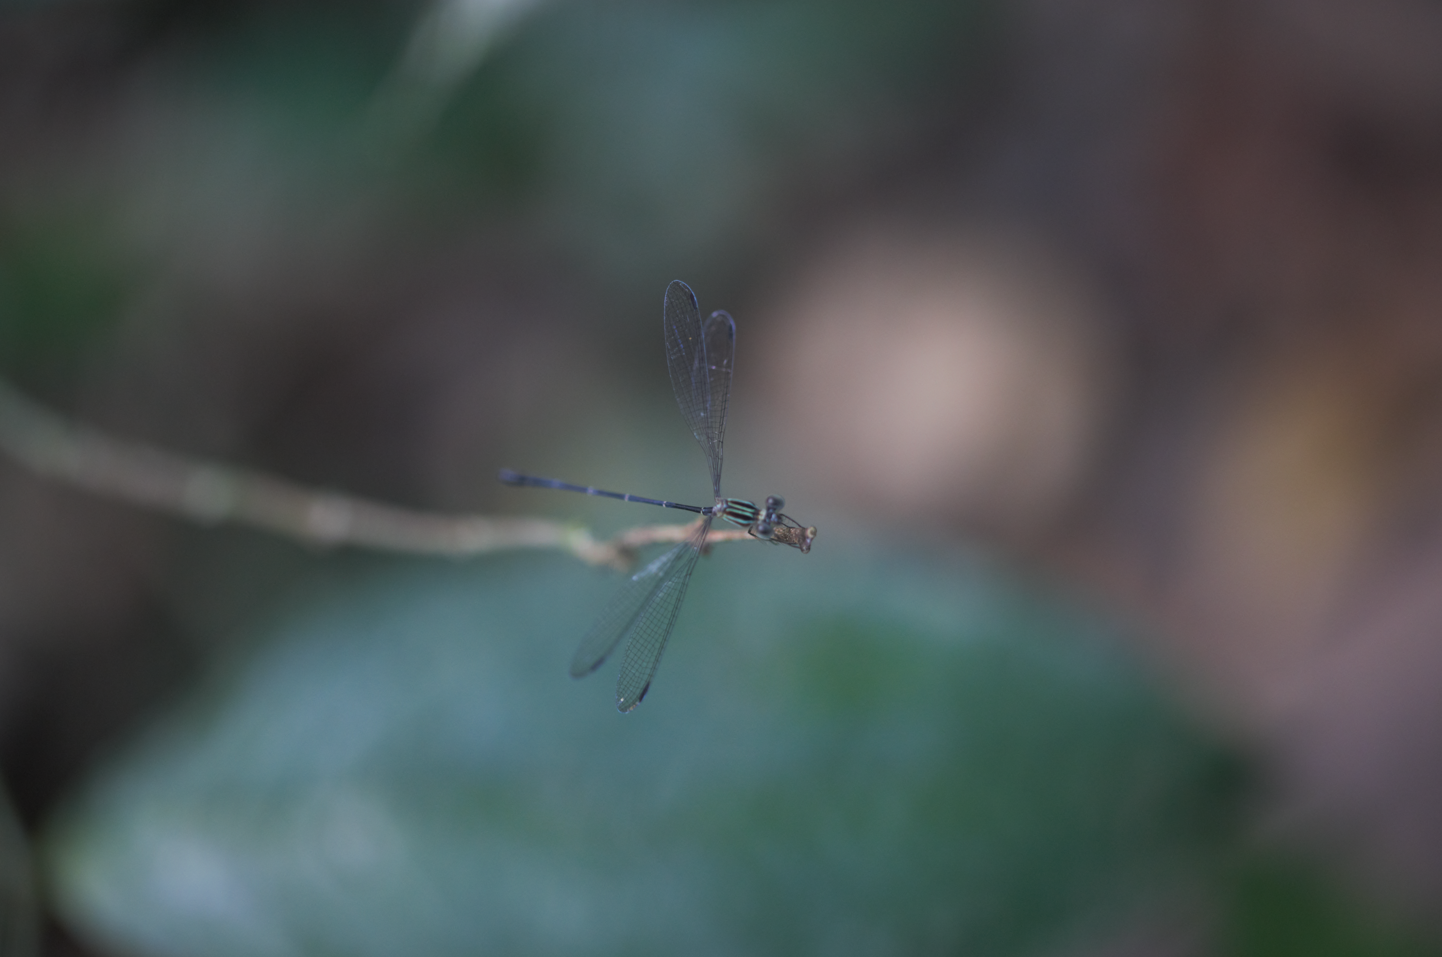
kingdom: Animalia
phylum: Arthropoda
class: Insecta
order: Odonata
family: Heteragrionidae
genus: Oxystigma
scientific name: Oxystigma petiolatum
